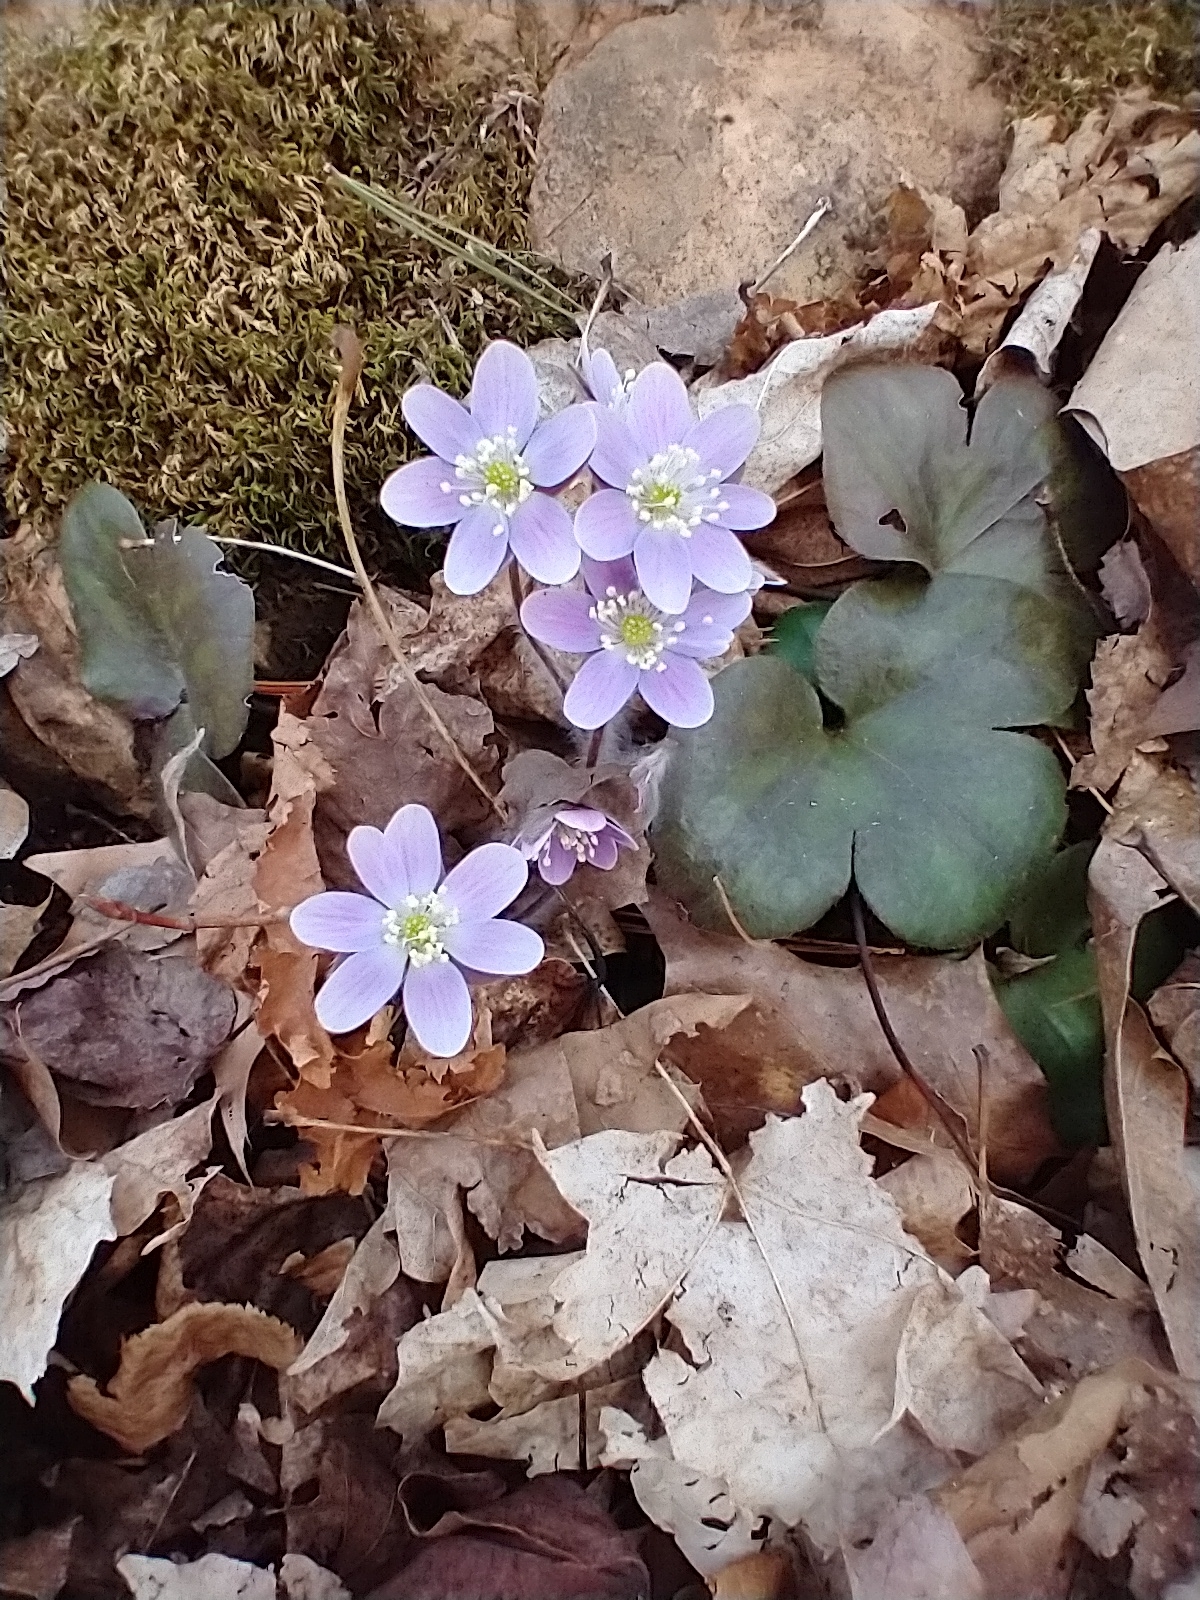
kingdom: Plantae
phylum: Tracheophyta
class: Magnoliopsida
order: Ranunculales
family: Ranunculaceae
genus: Hepatica
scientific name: Hepatica americana
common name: American hepatica
